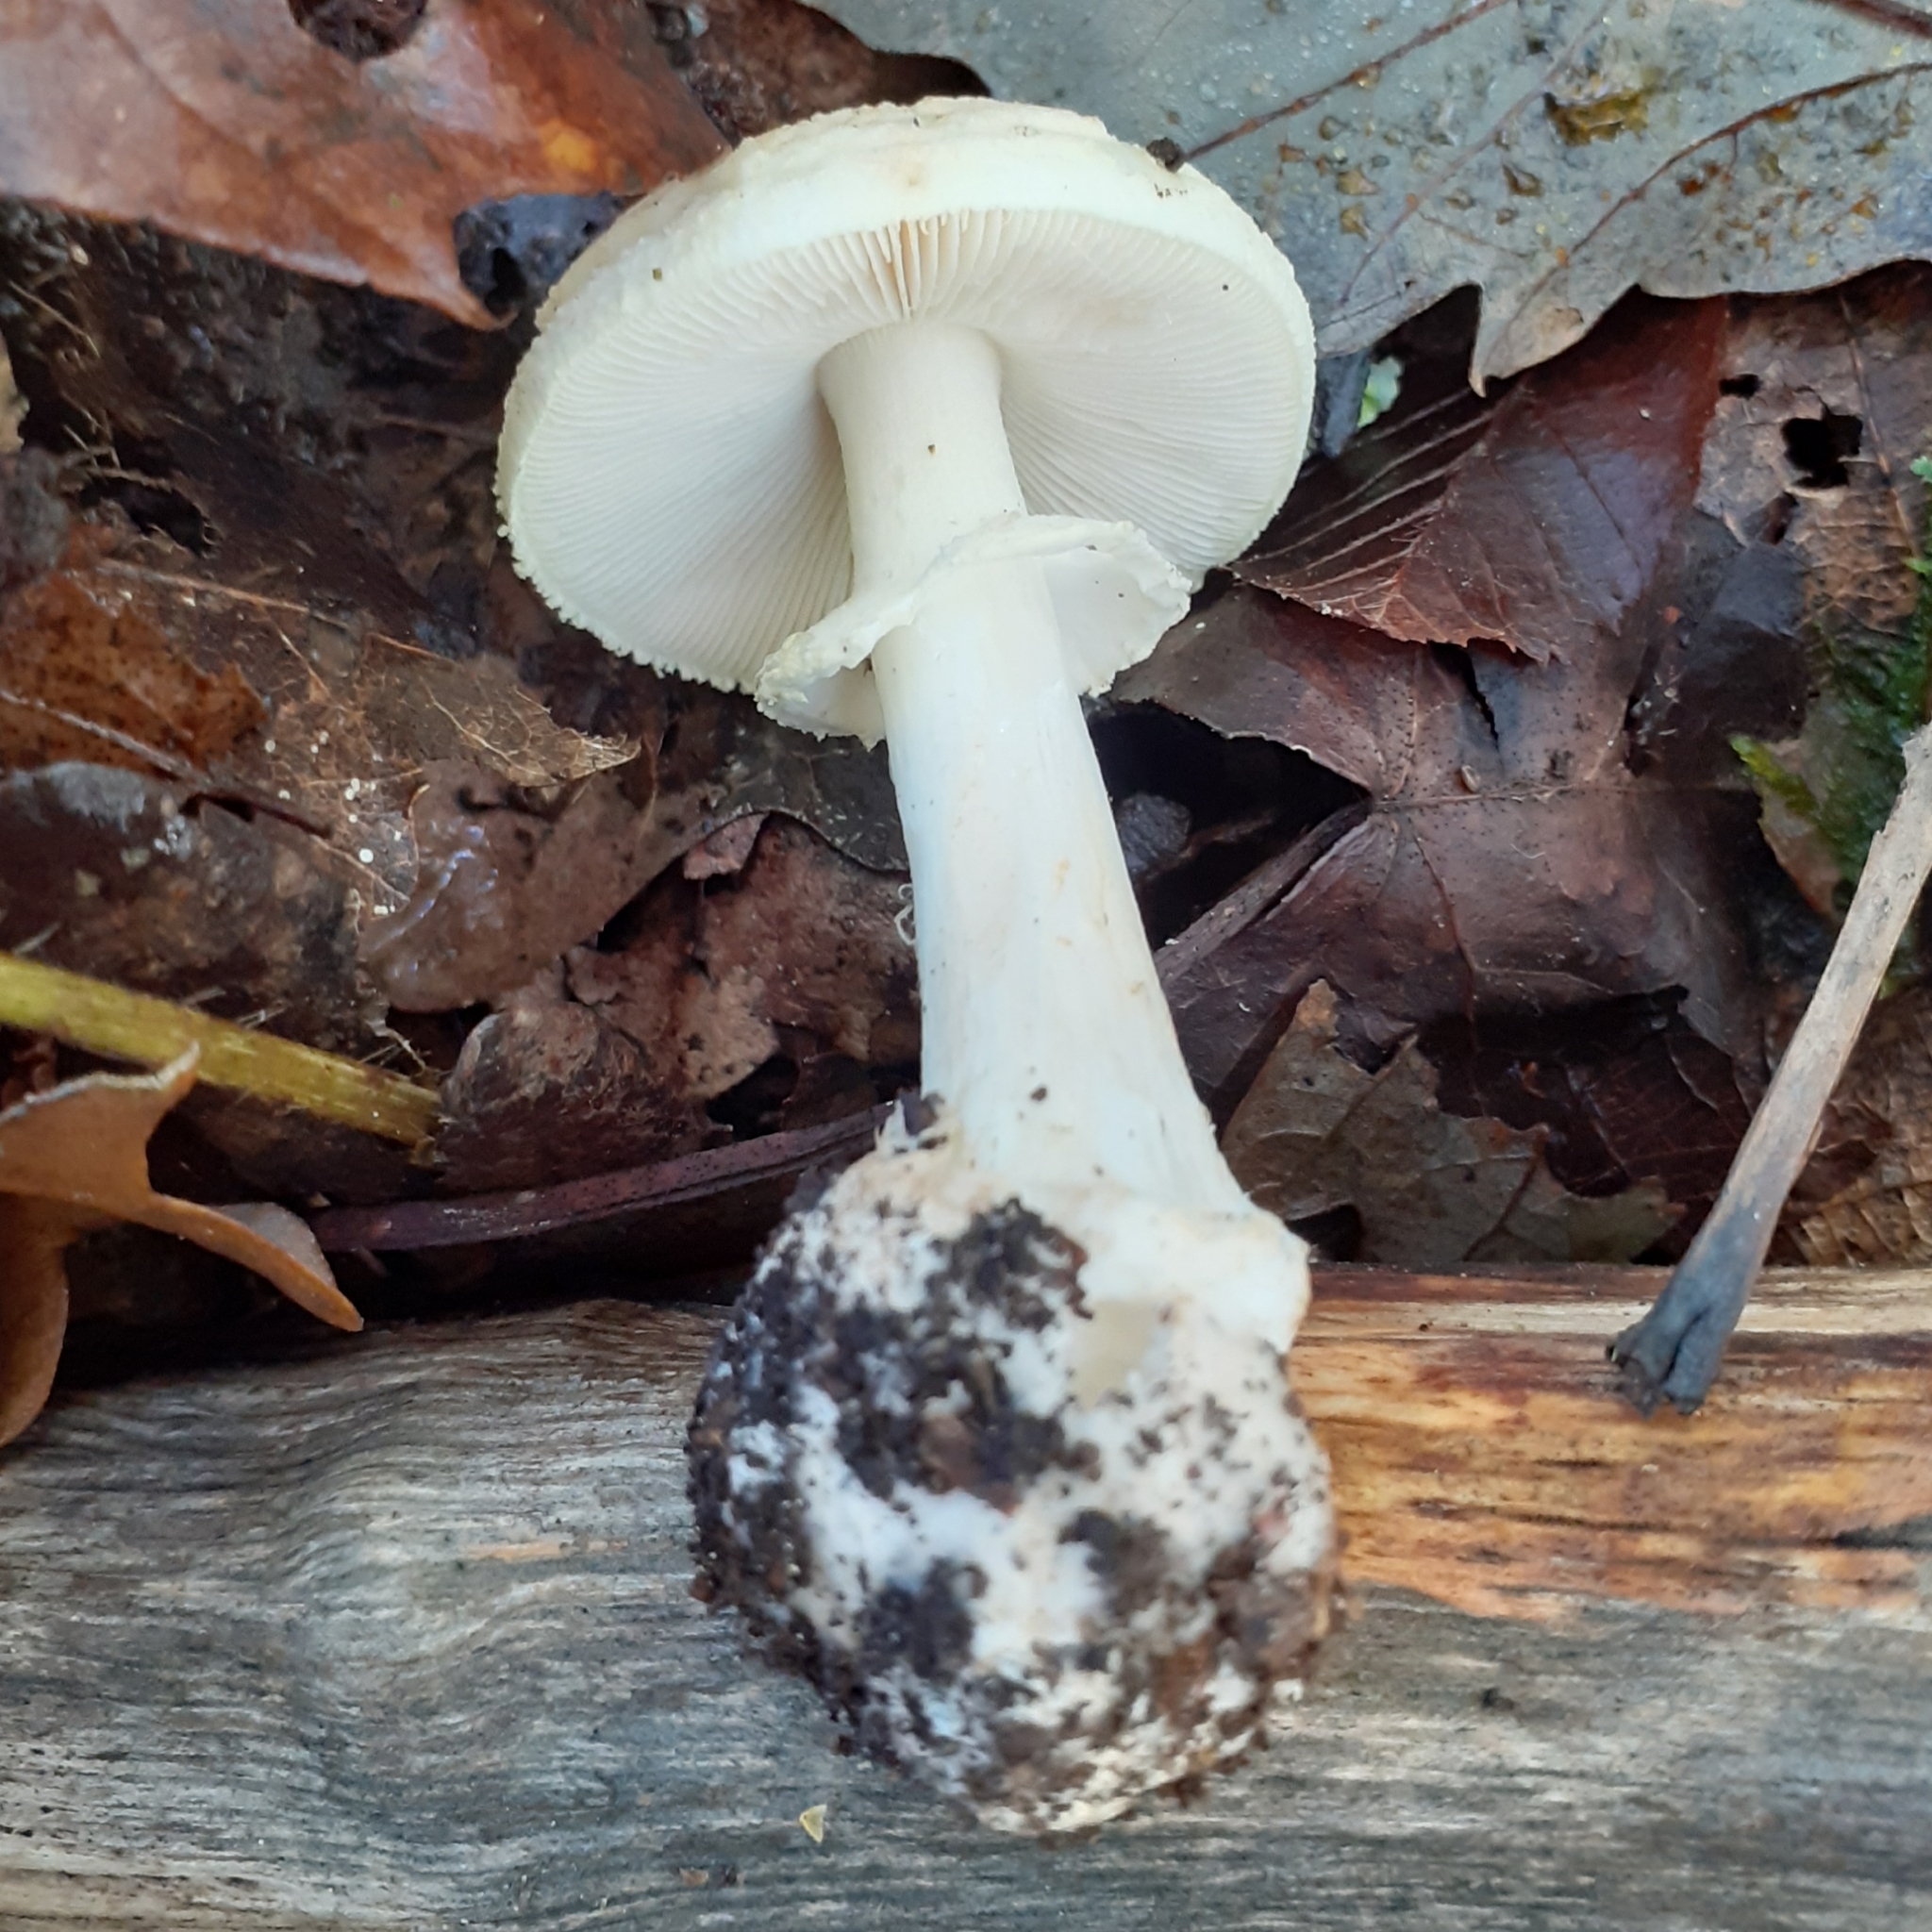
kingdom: Fungi
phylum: Basidiomycota
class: Agaricomycetes
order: Agaricales
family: Amanitaceae
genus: Amanita
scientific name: Amanita citrina
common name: False death-cap
